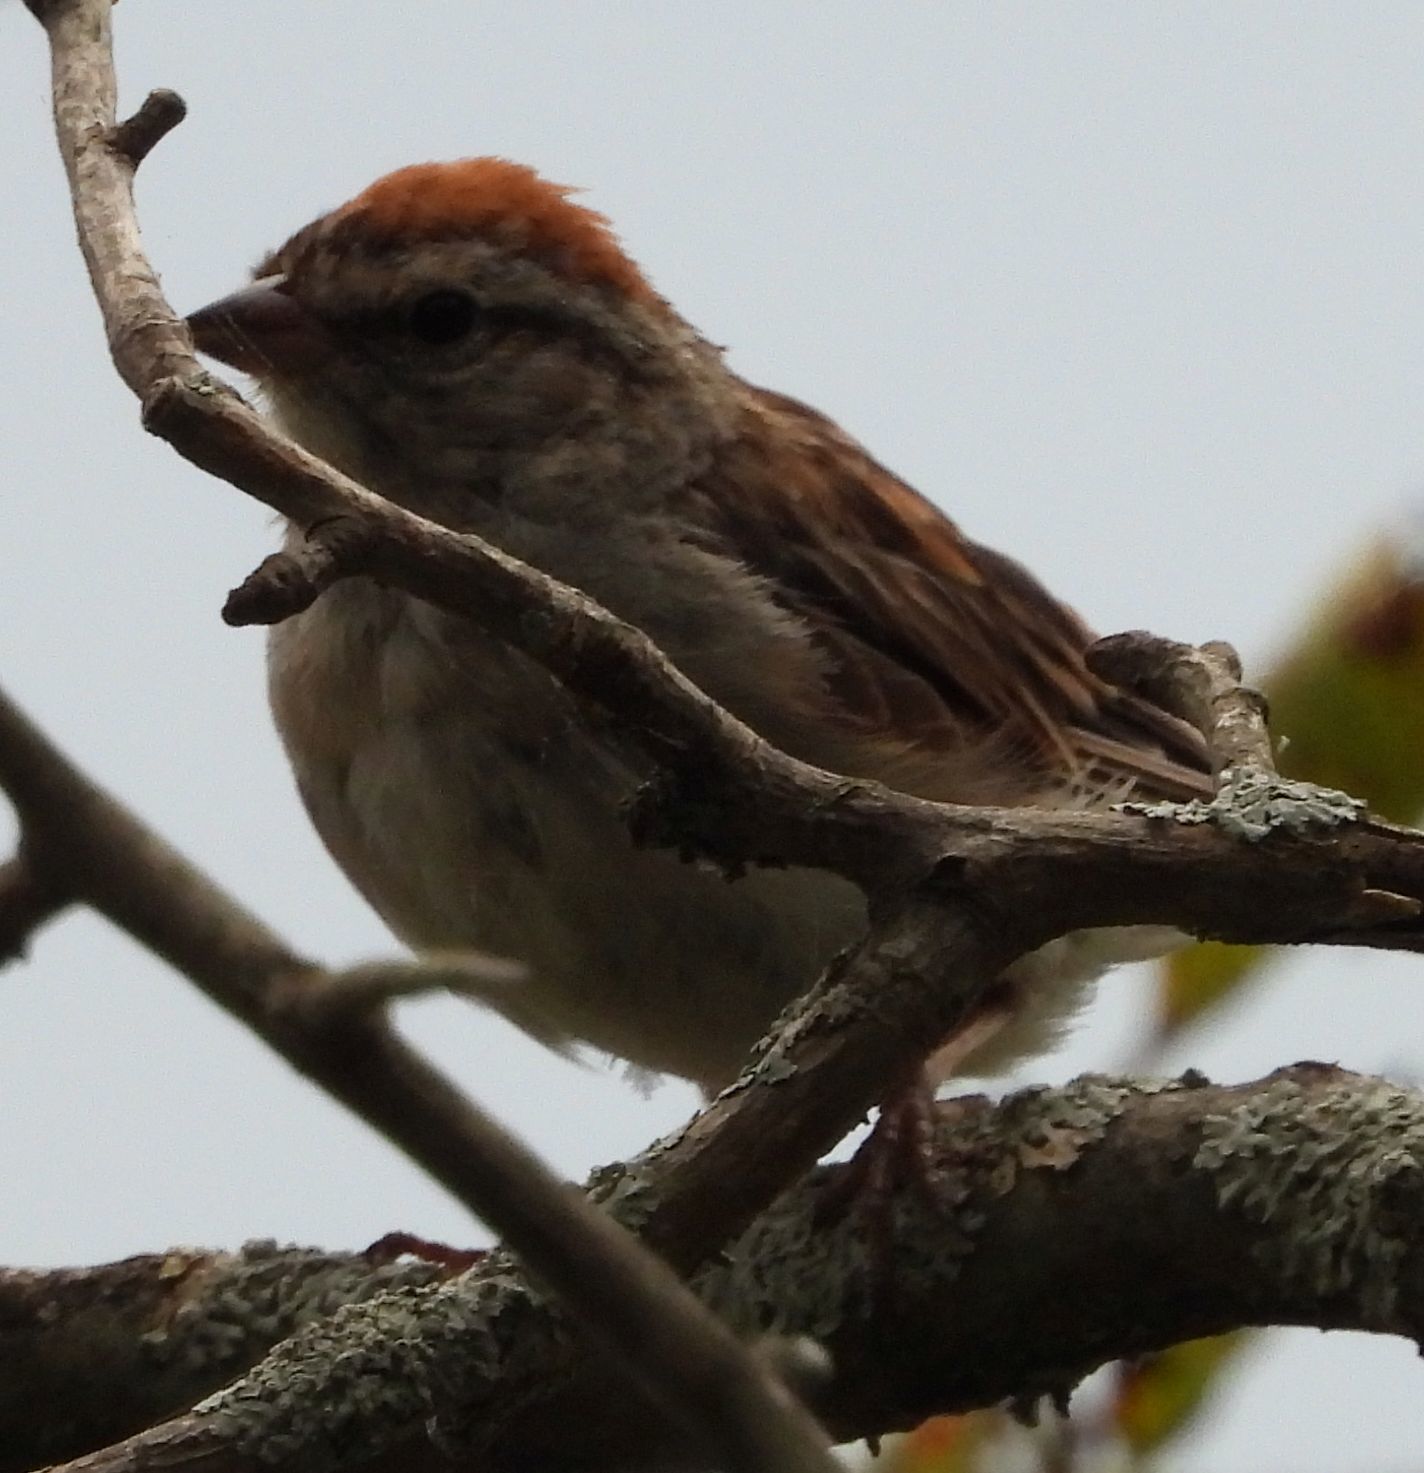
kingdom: Animalia
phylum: Chordata
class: Aves
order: Passeriformes
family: Passerellidae
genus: Spizella
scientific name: Spizella passerina
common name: Chipping sparrow
